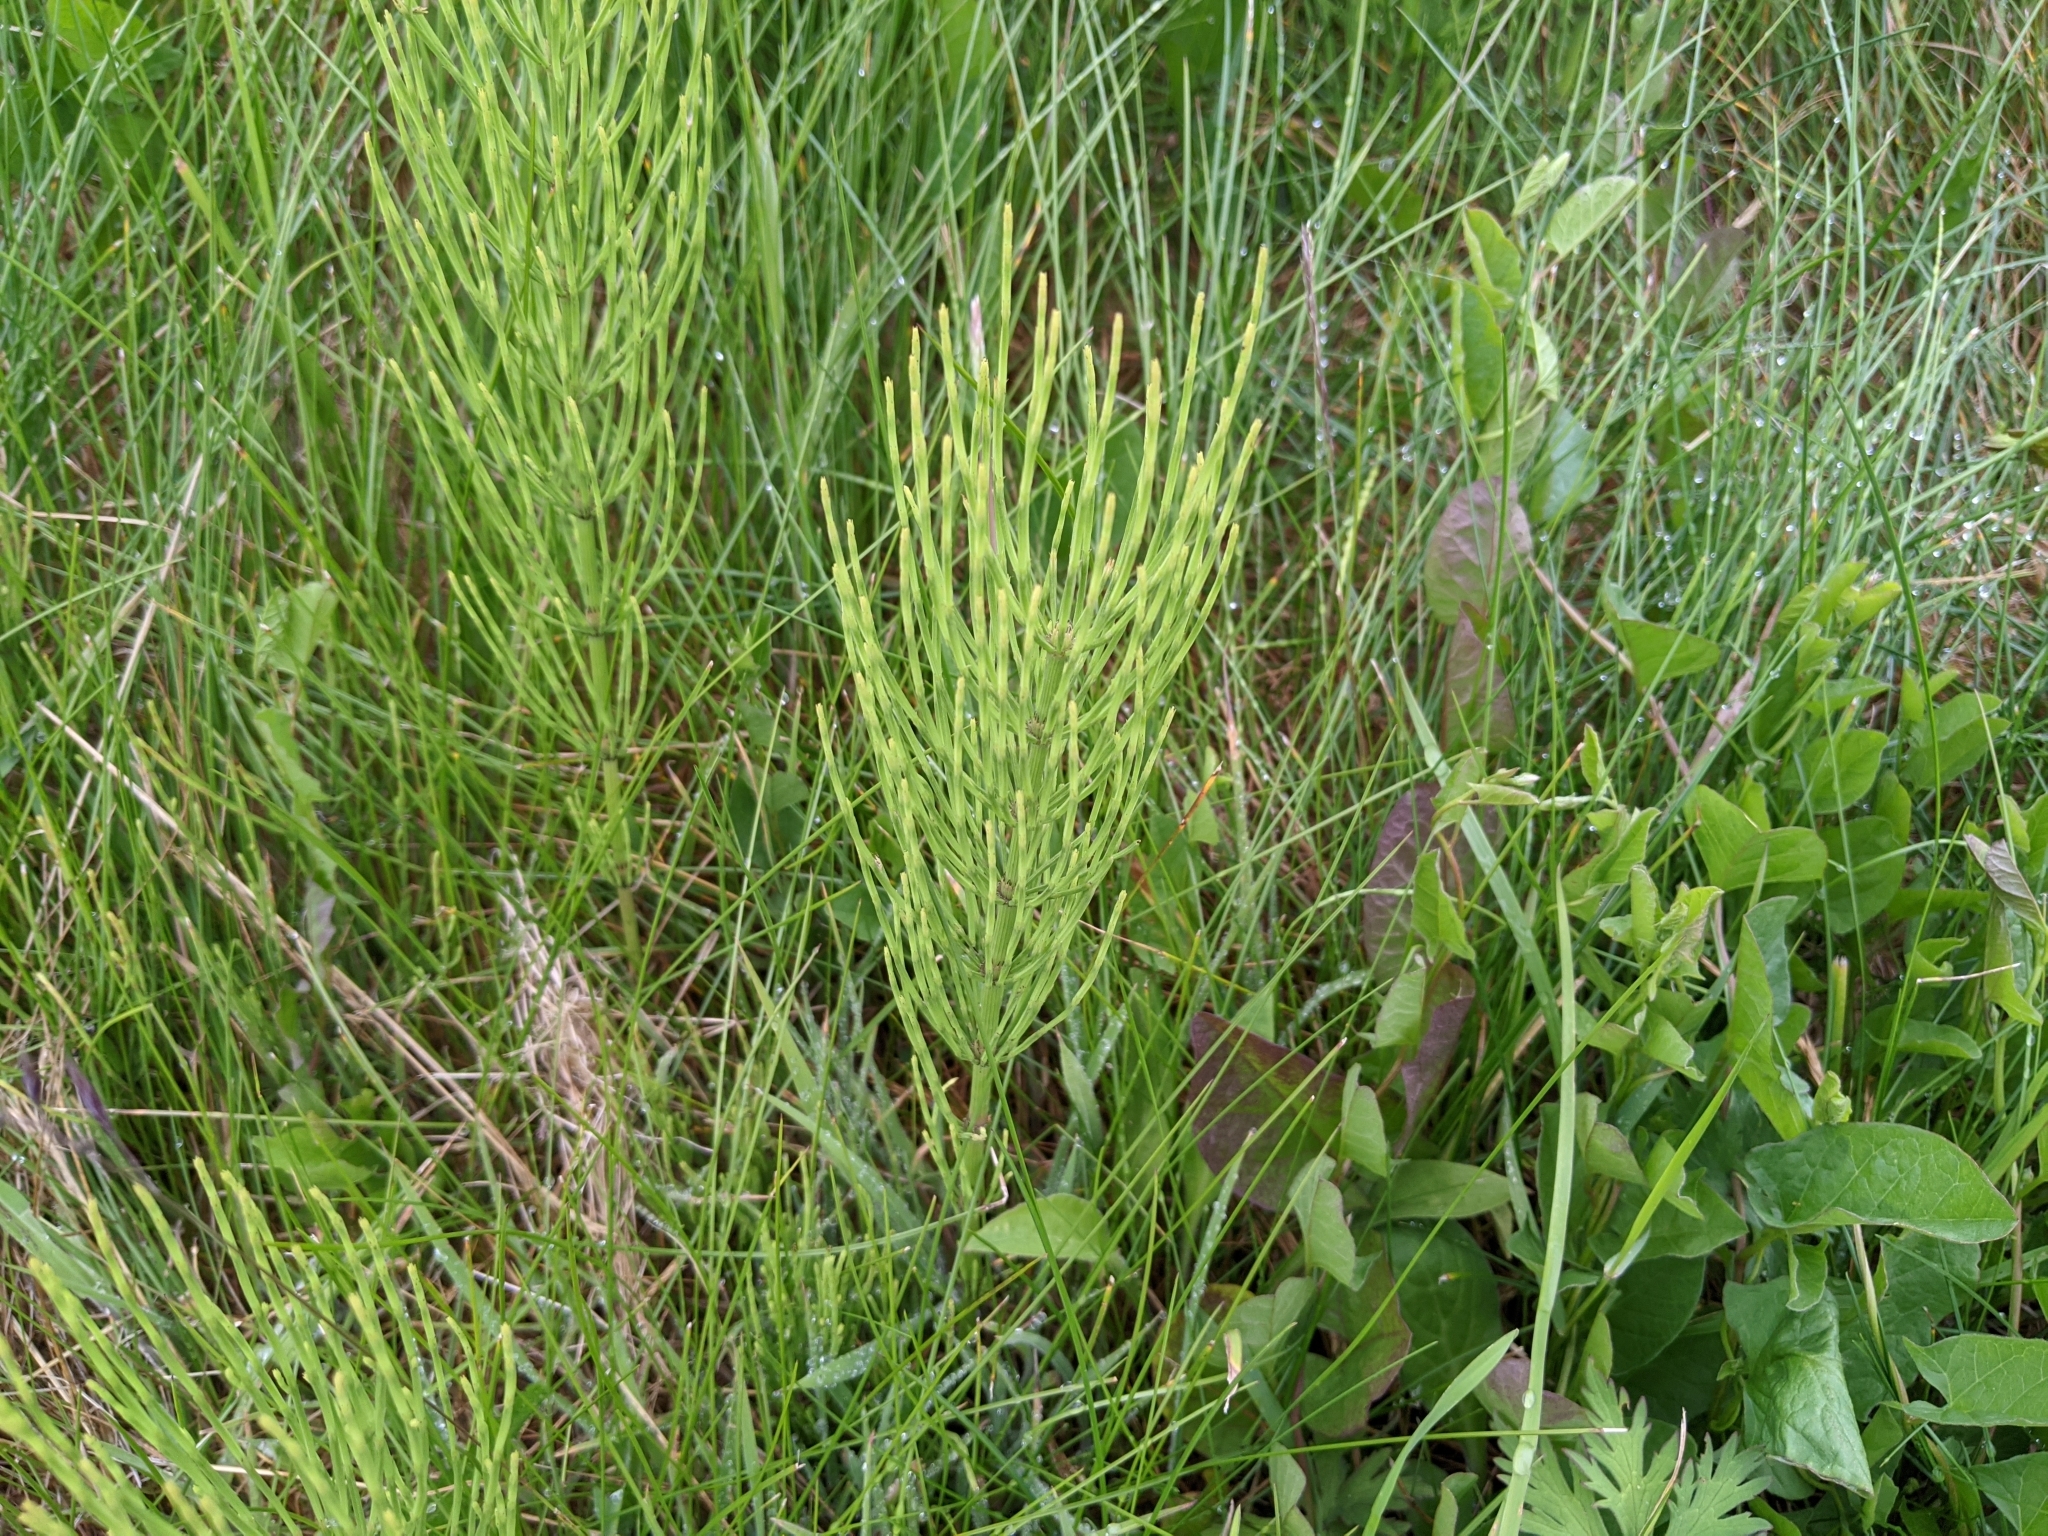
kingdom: Plantae
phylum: Tracheophyta
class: Polypodiopsida
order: Equisetales
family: Equisetaceae
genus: Equisetum
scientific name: Equisetum arvense
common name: Field horsetail
